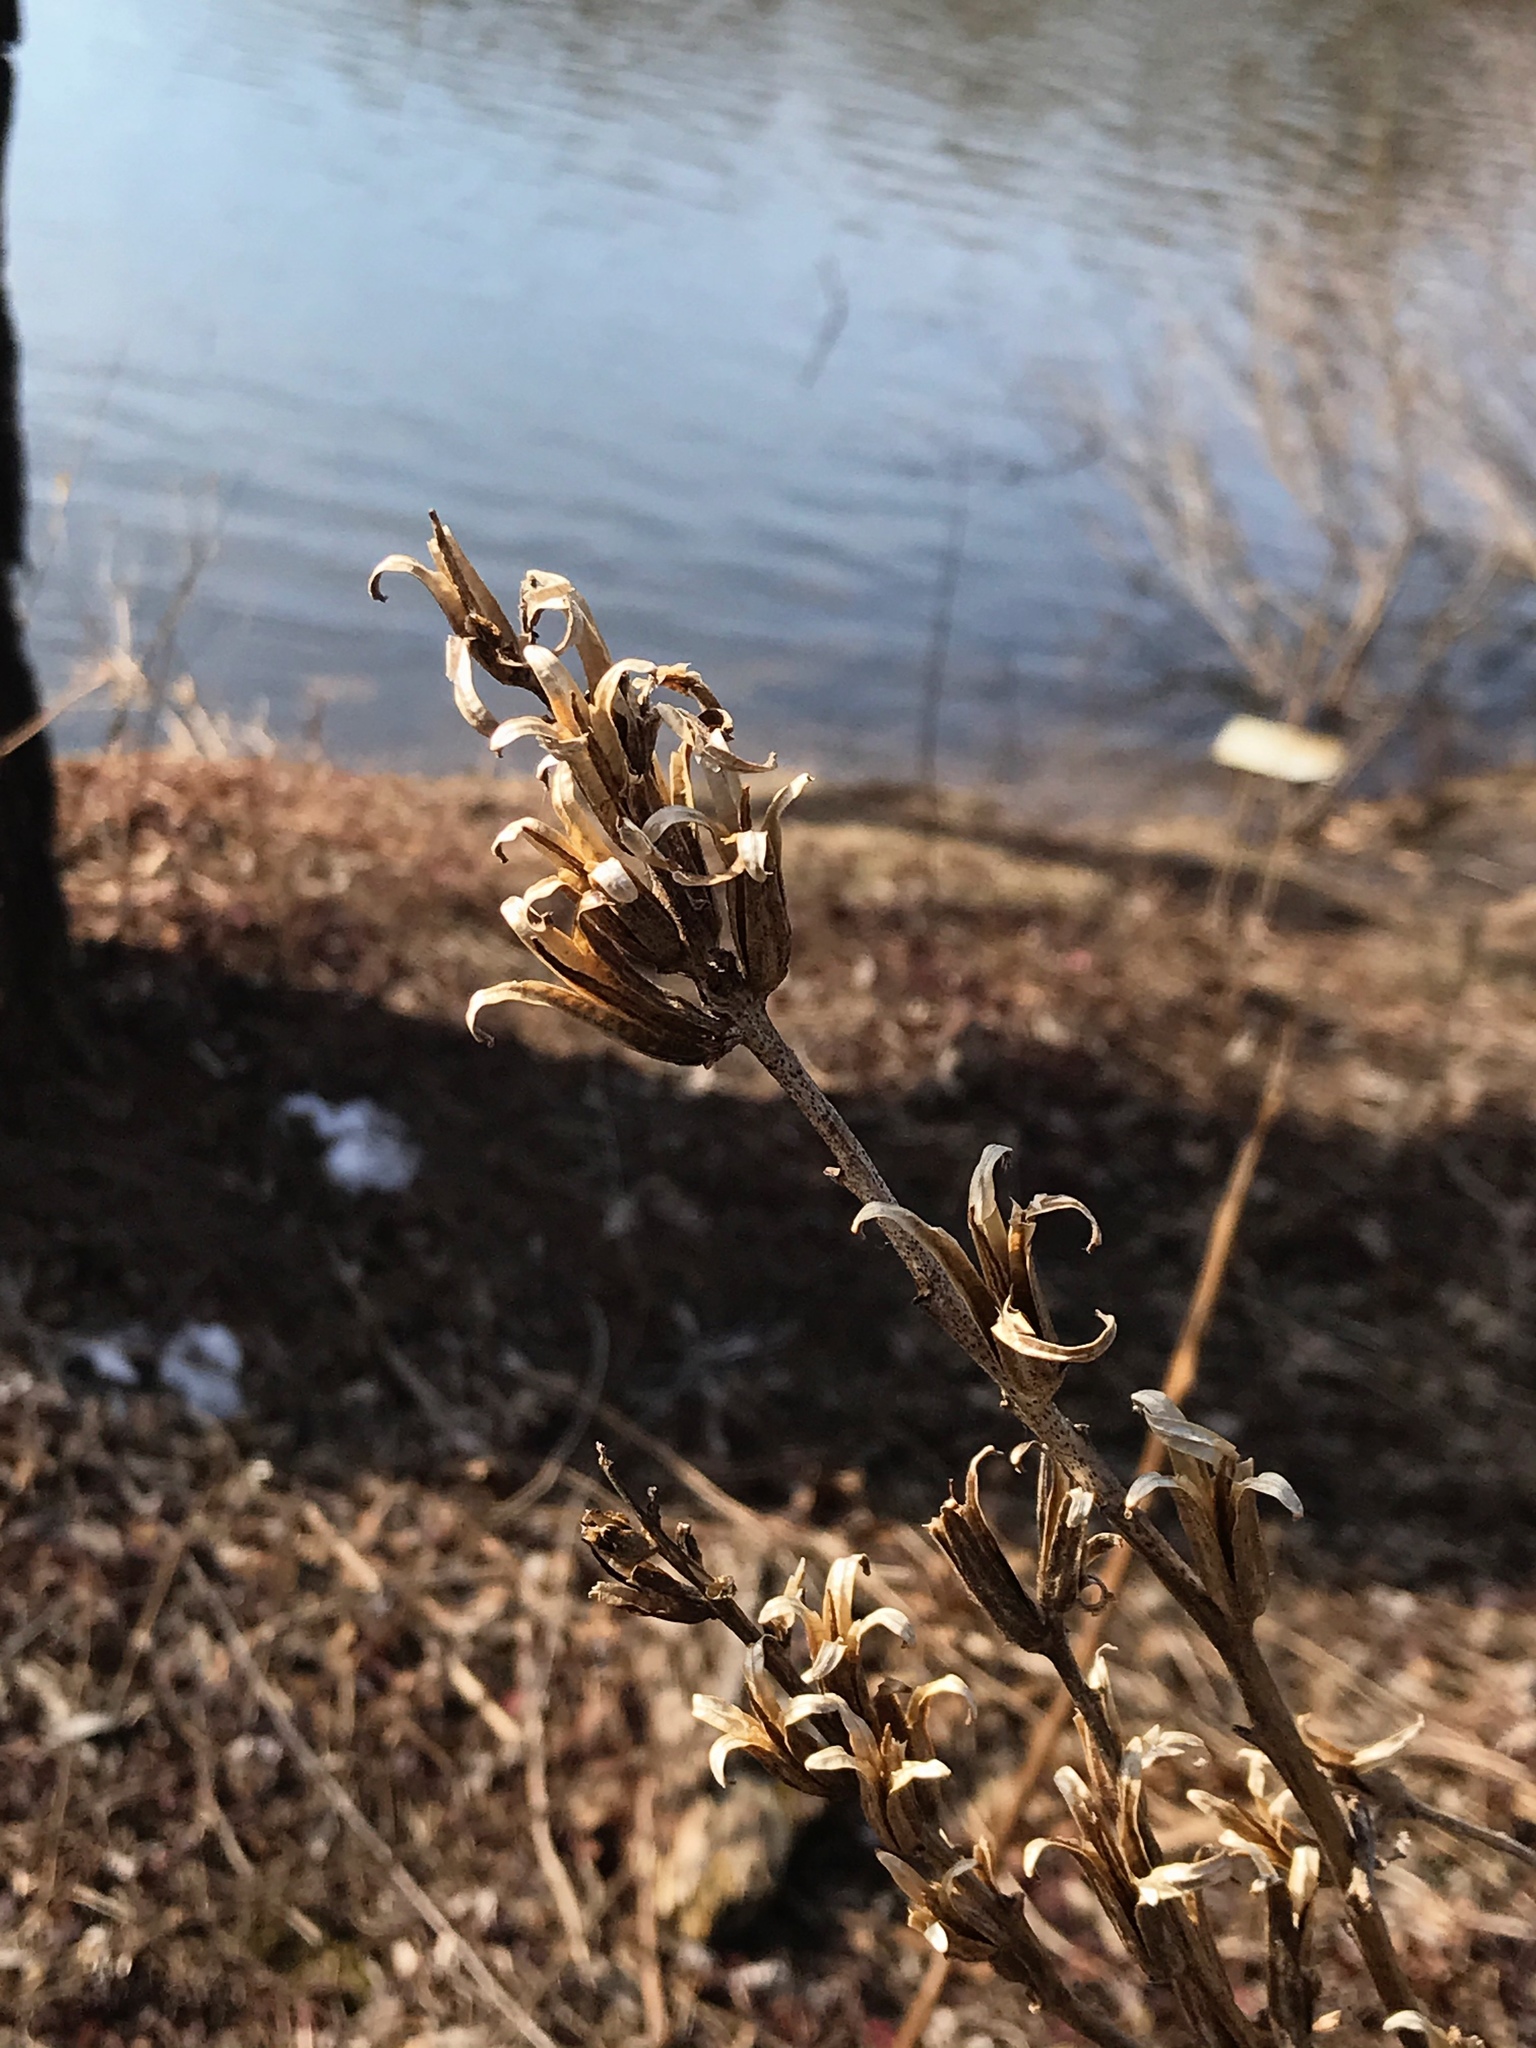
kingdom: Plantae
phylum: Tracheophyta
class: Magnoliopsida
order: Myrtales
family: Onagraceae
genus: Oenothera
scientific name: Oenothera biennis
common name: Common evening-primrose
